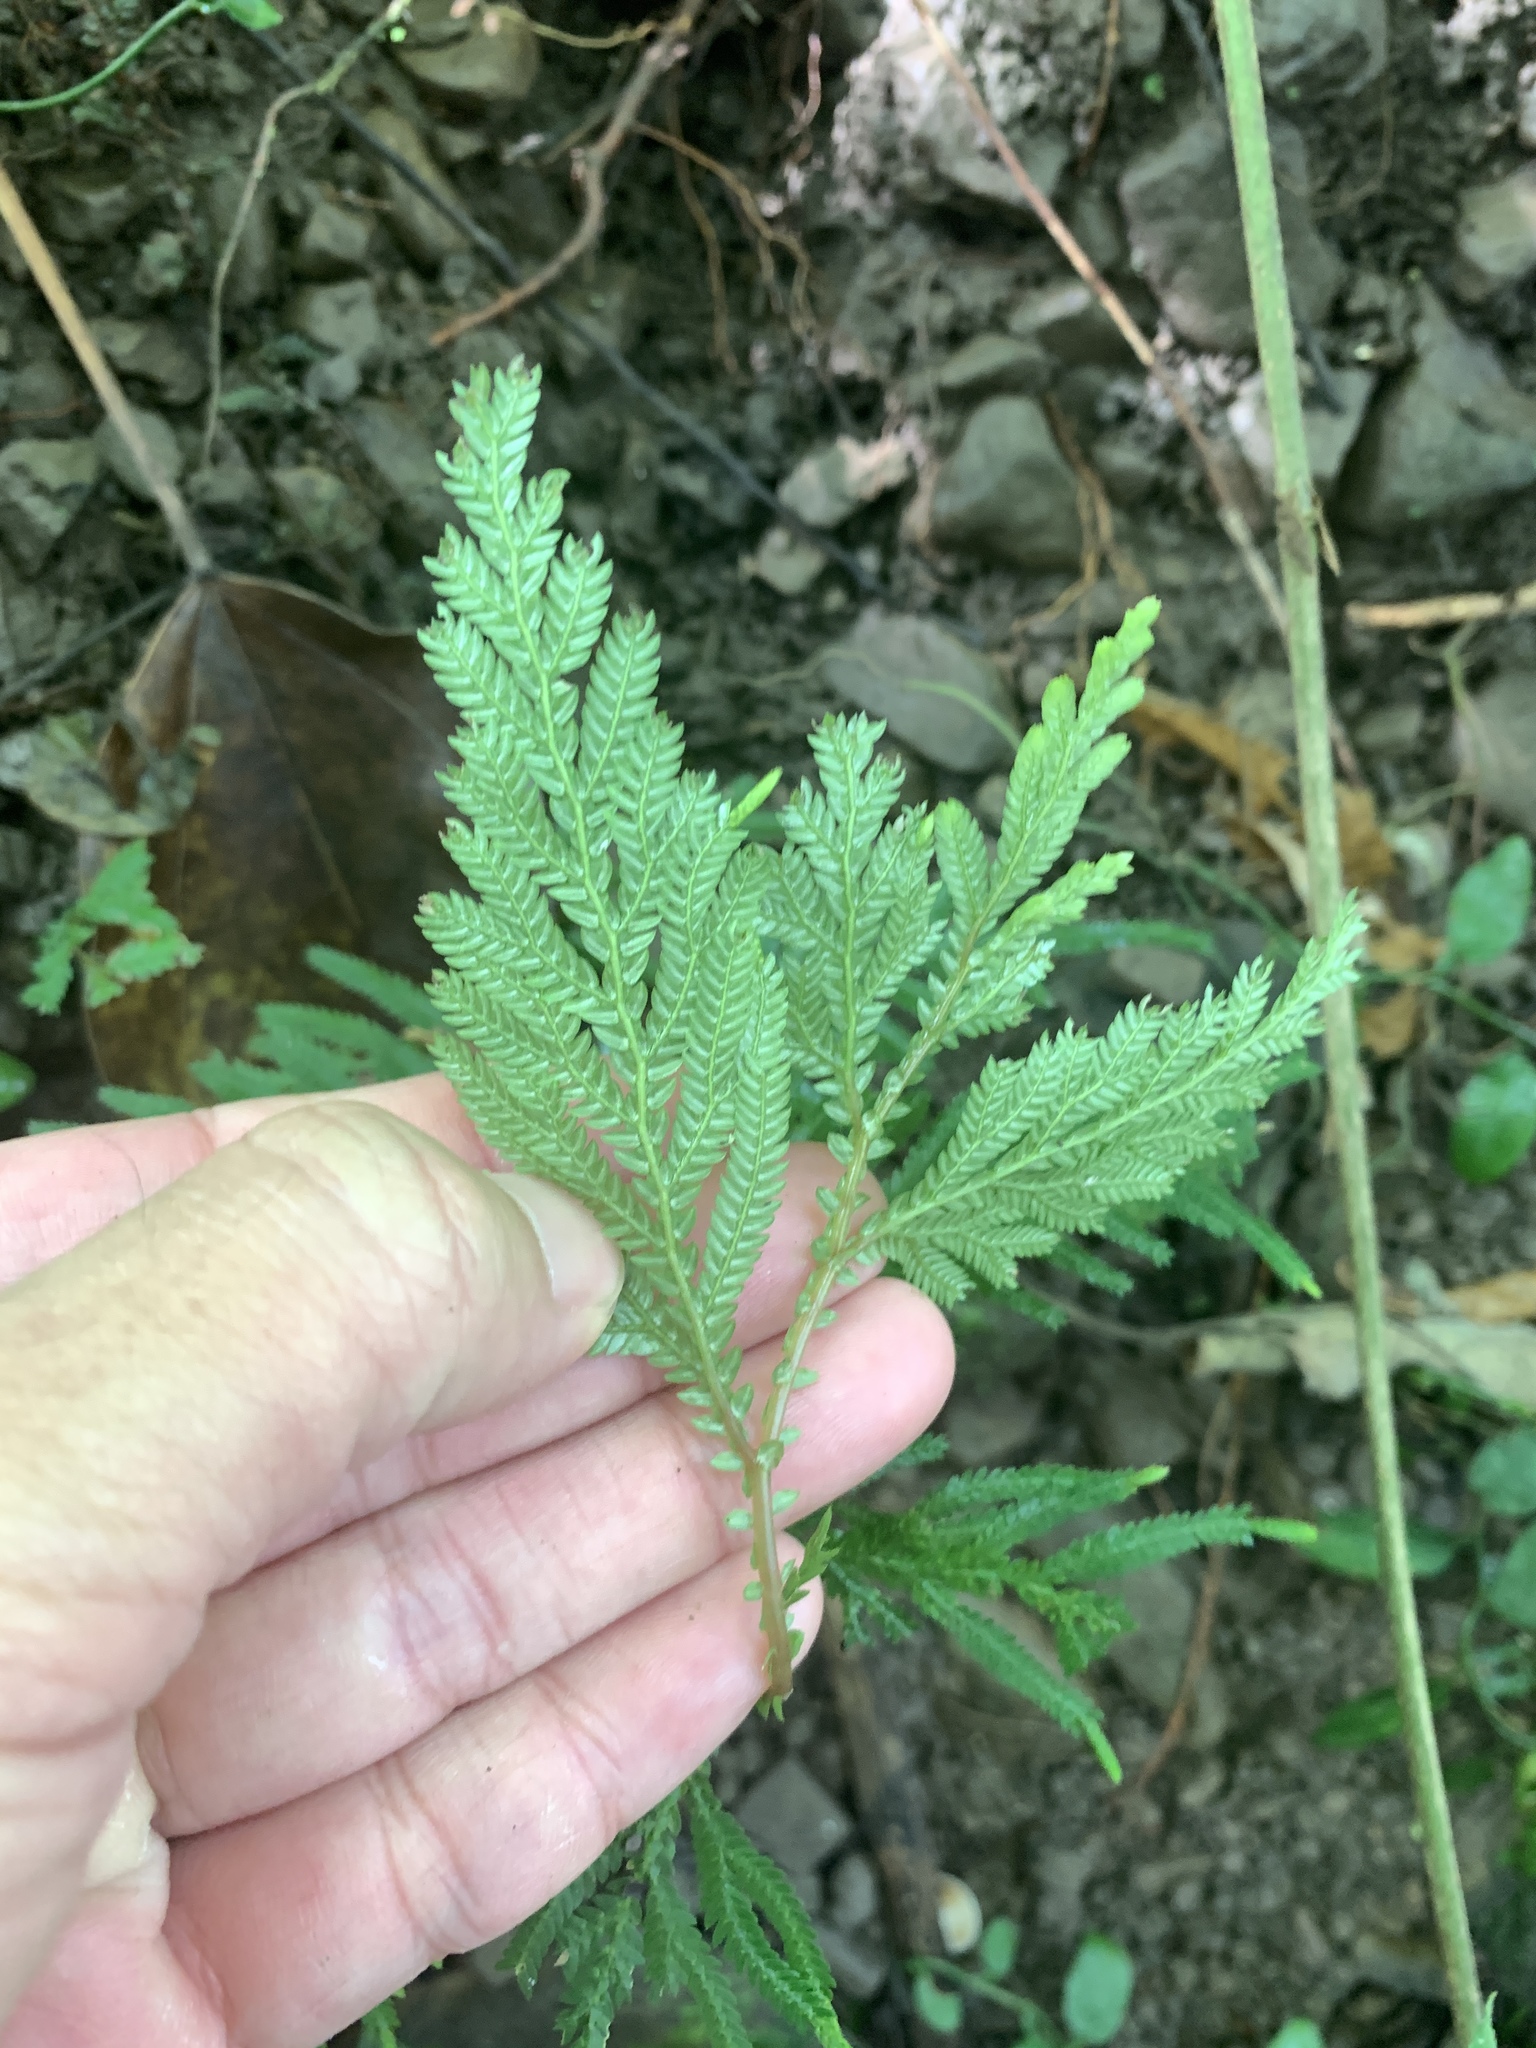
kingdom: Plantae
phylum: Tracheophyta
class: Lycopodiopsida
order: Selaginellales
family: Selaginellaceae
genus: Selaginella
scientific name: Selaginella delicatula
